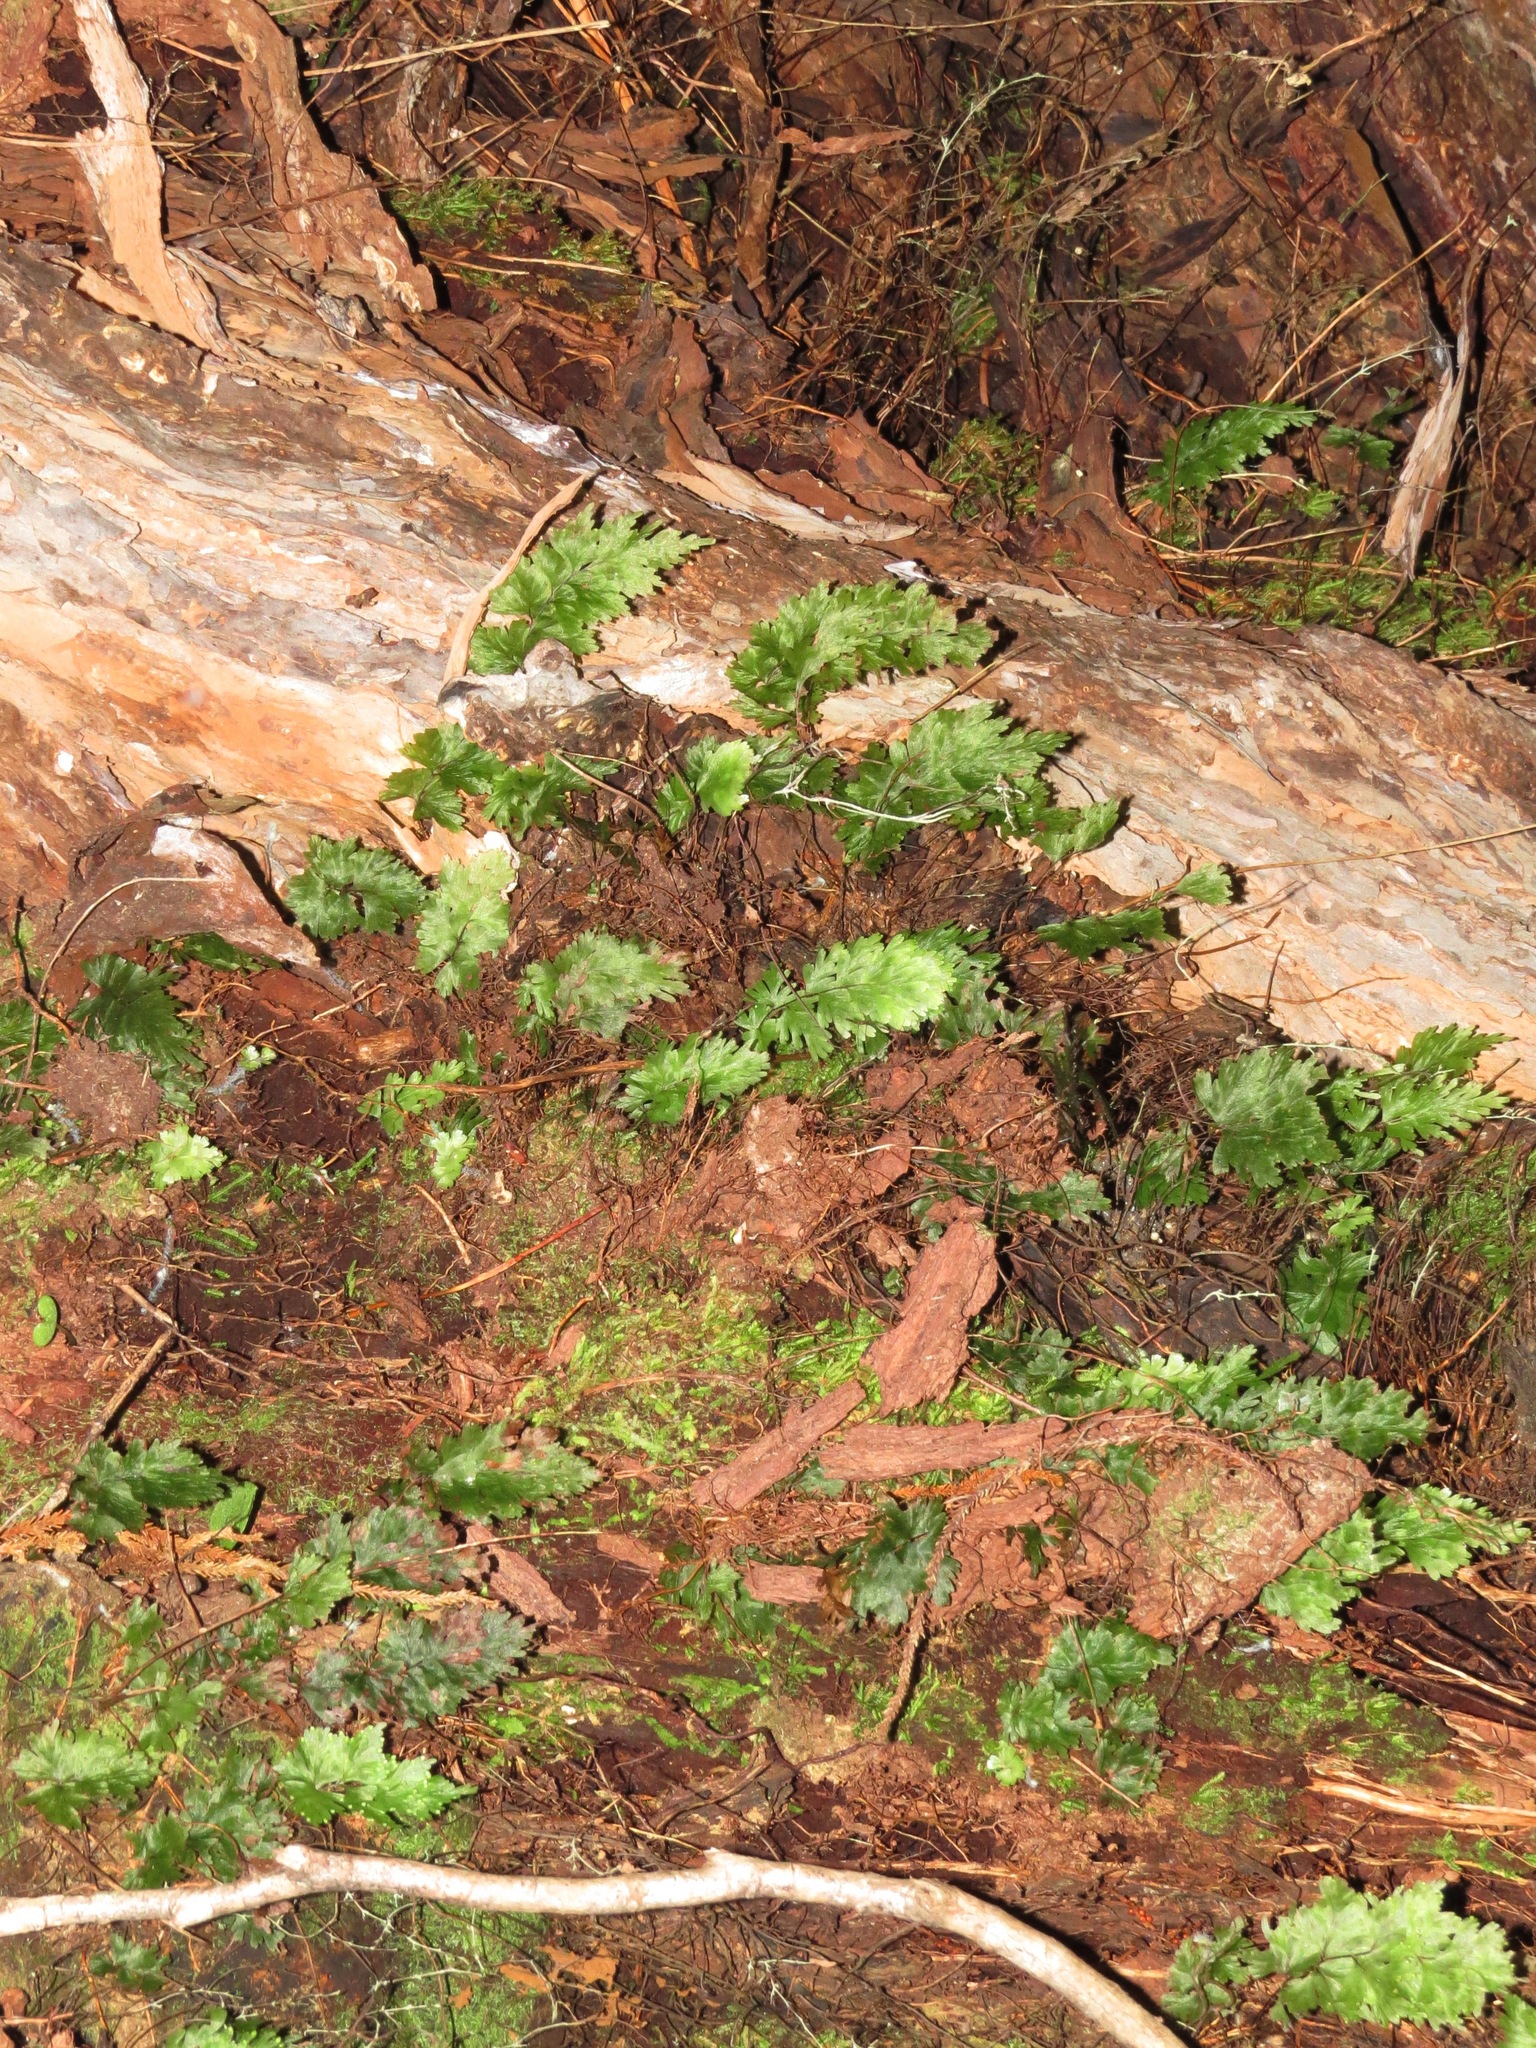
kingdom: Plantae
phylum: Tracheophyta
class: Polypodiopsida
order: Hymenophyllales
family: Hymenophyllaceae
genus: Hymenophyllum
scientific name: Hymenophyllum flabellatum
